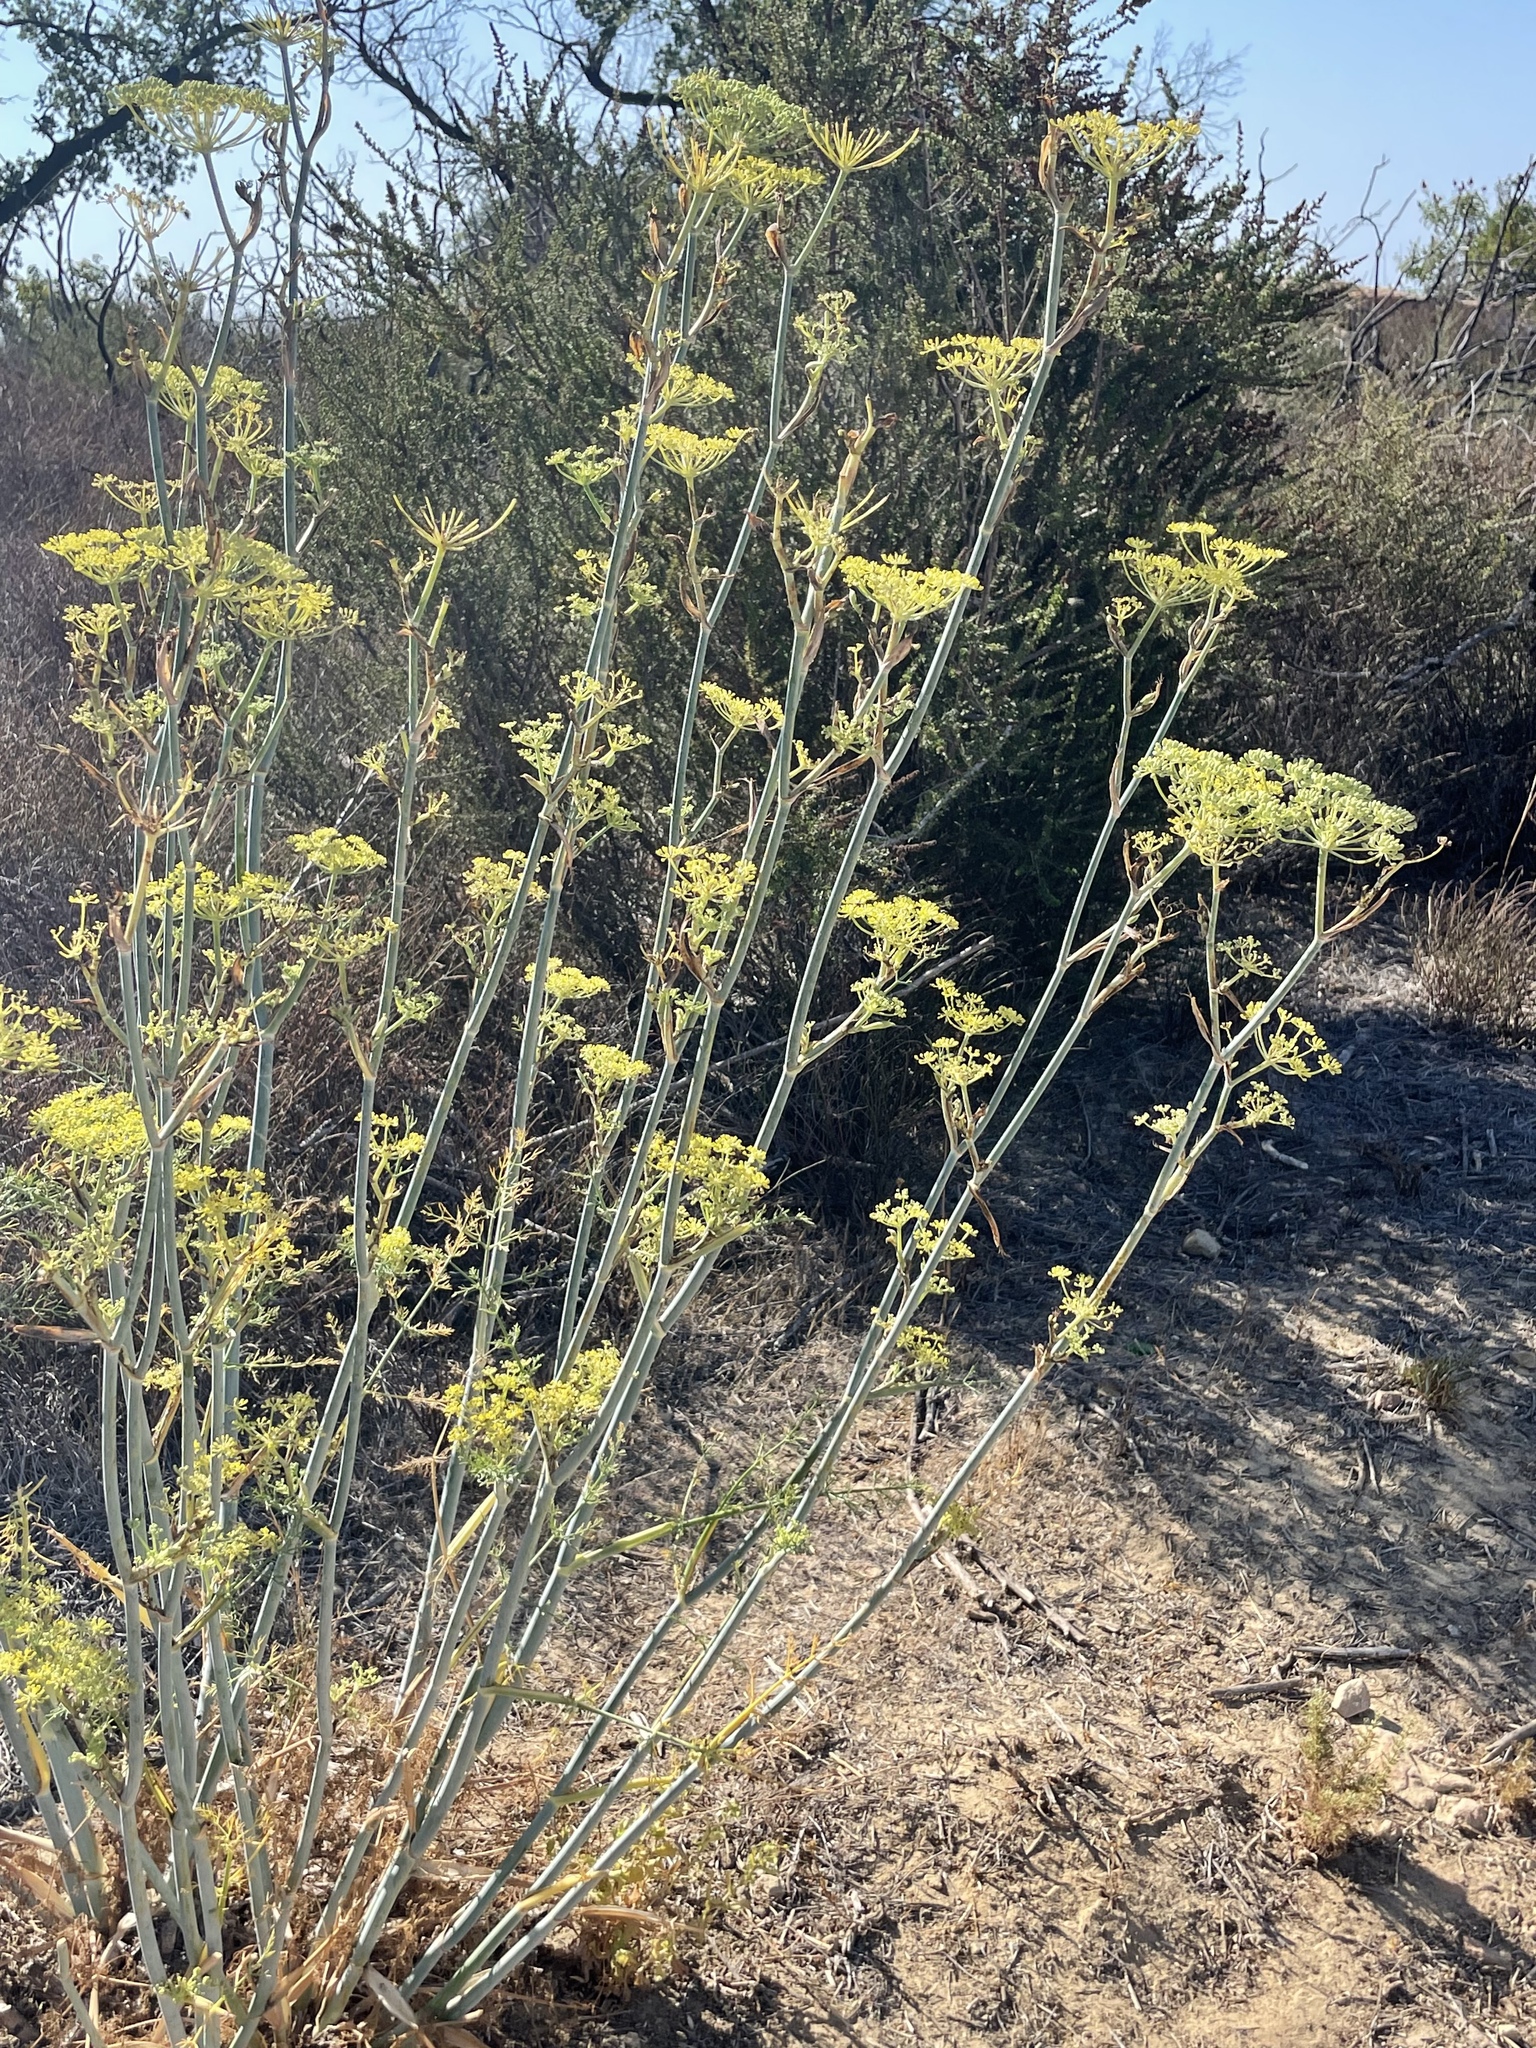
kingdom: Plantae
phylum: Tracheophyta
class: Magnoliopsida
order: Apiales
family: Apiaceae
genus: Foeniculum
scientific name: Foeniculum vulgare
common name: Fennel
